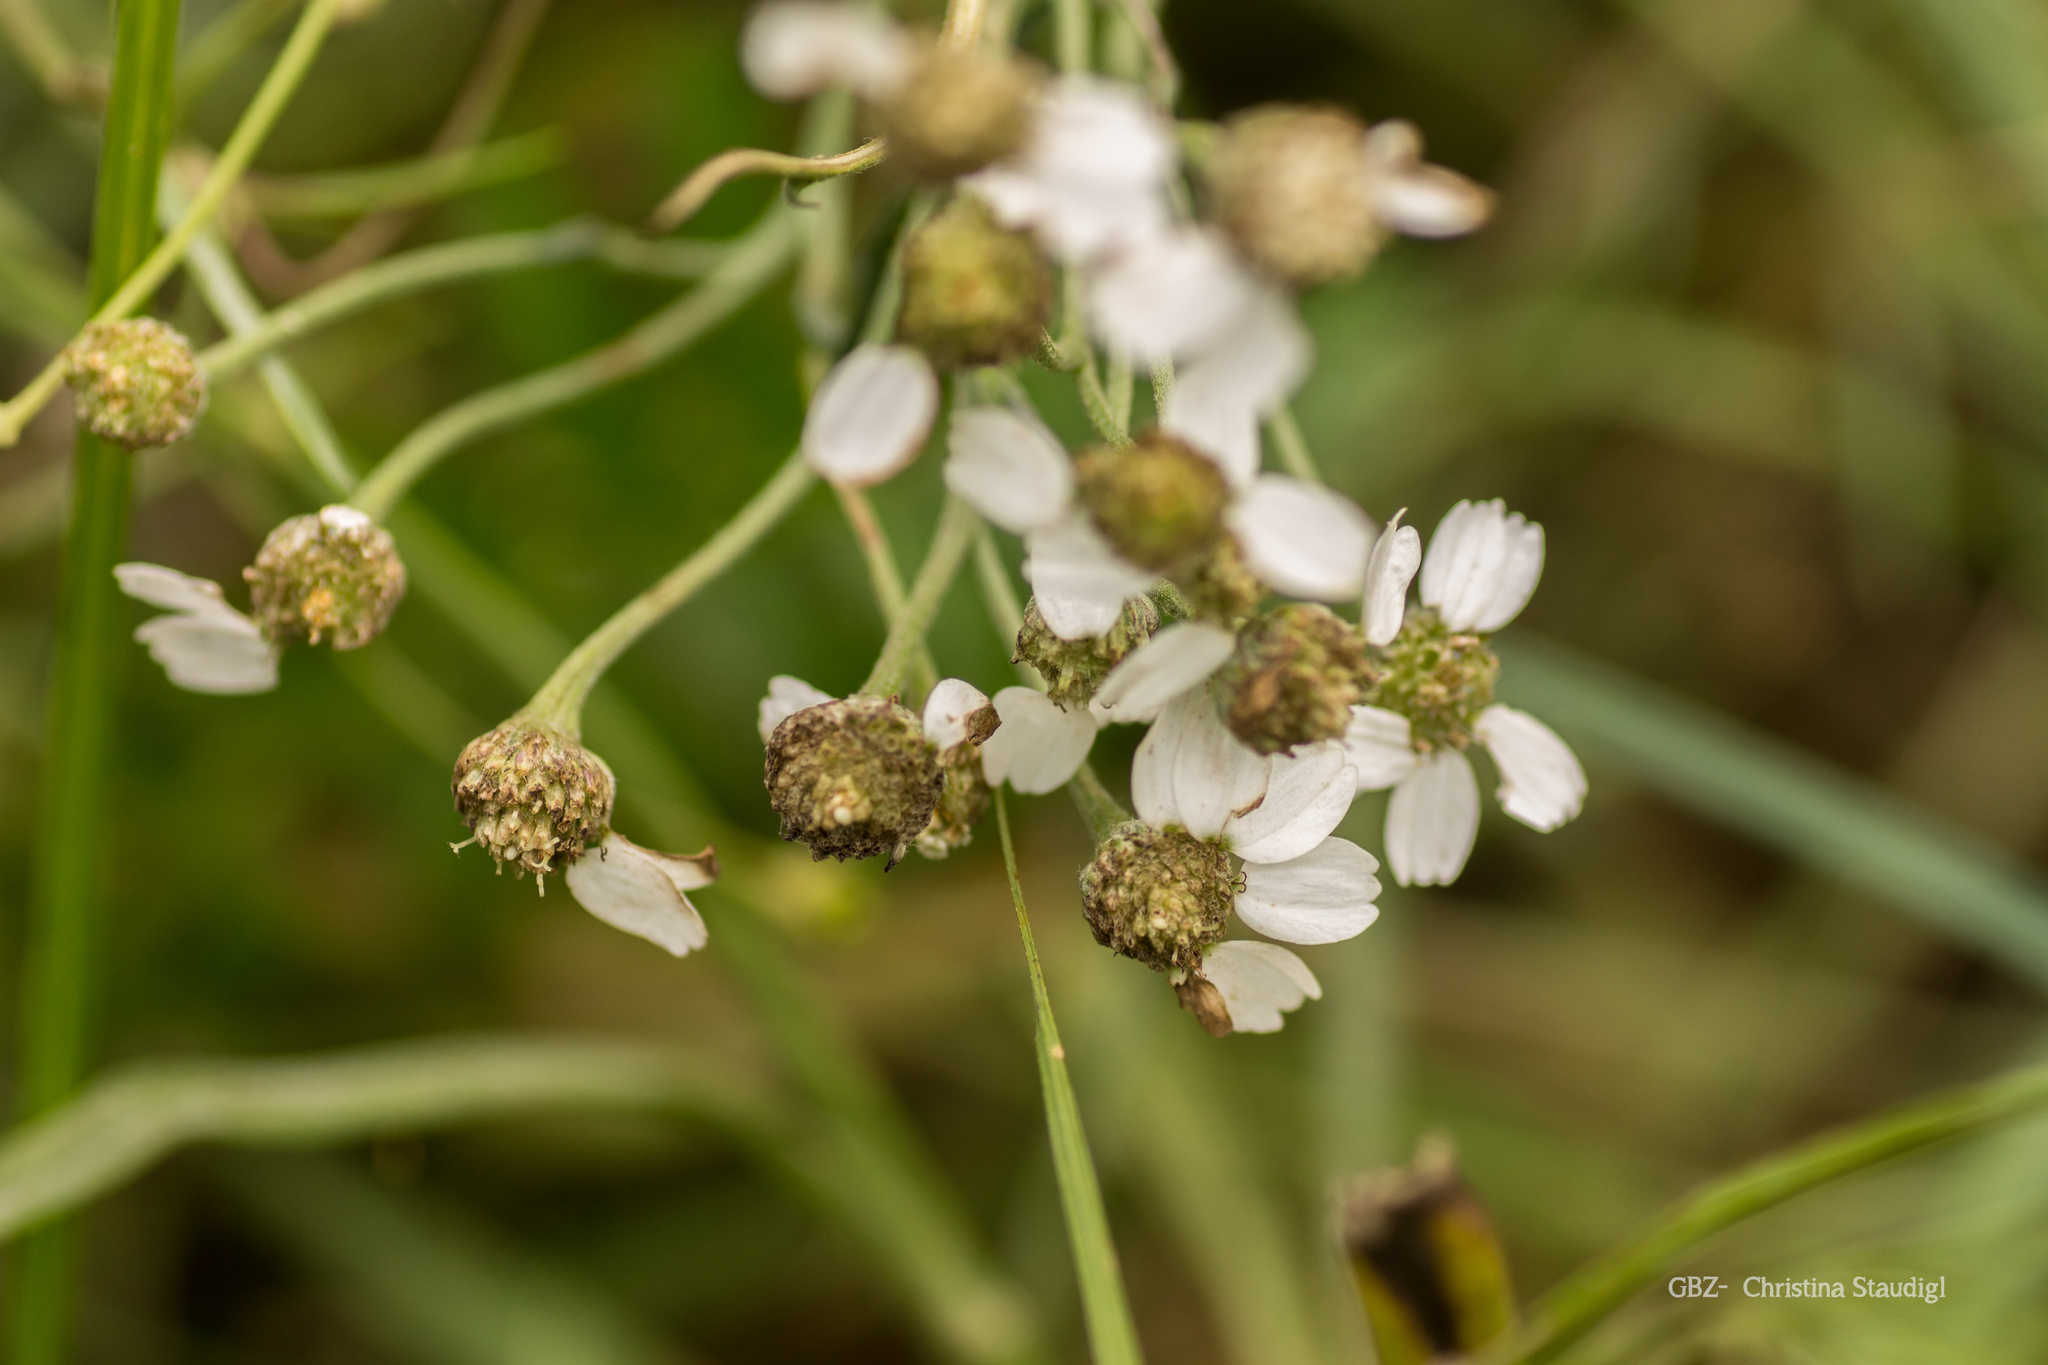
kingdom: Plantae
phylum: Tracheophyta
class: Magnoliopsida
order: Asterales
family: Asteraceae
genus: Achillea
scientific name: Achillea ptarmica
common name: Sneezeweed
